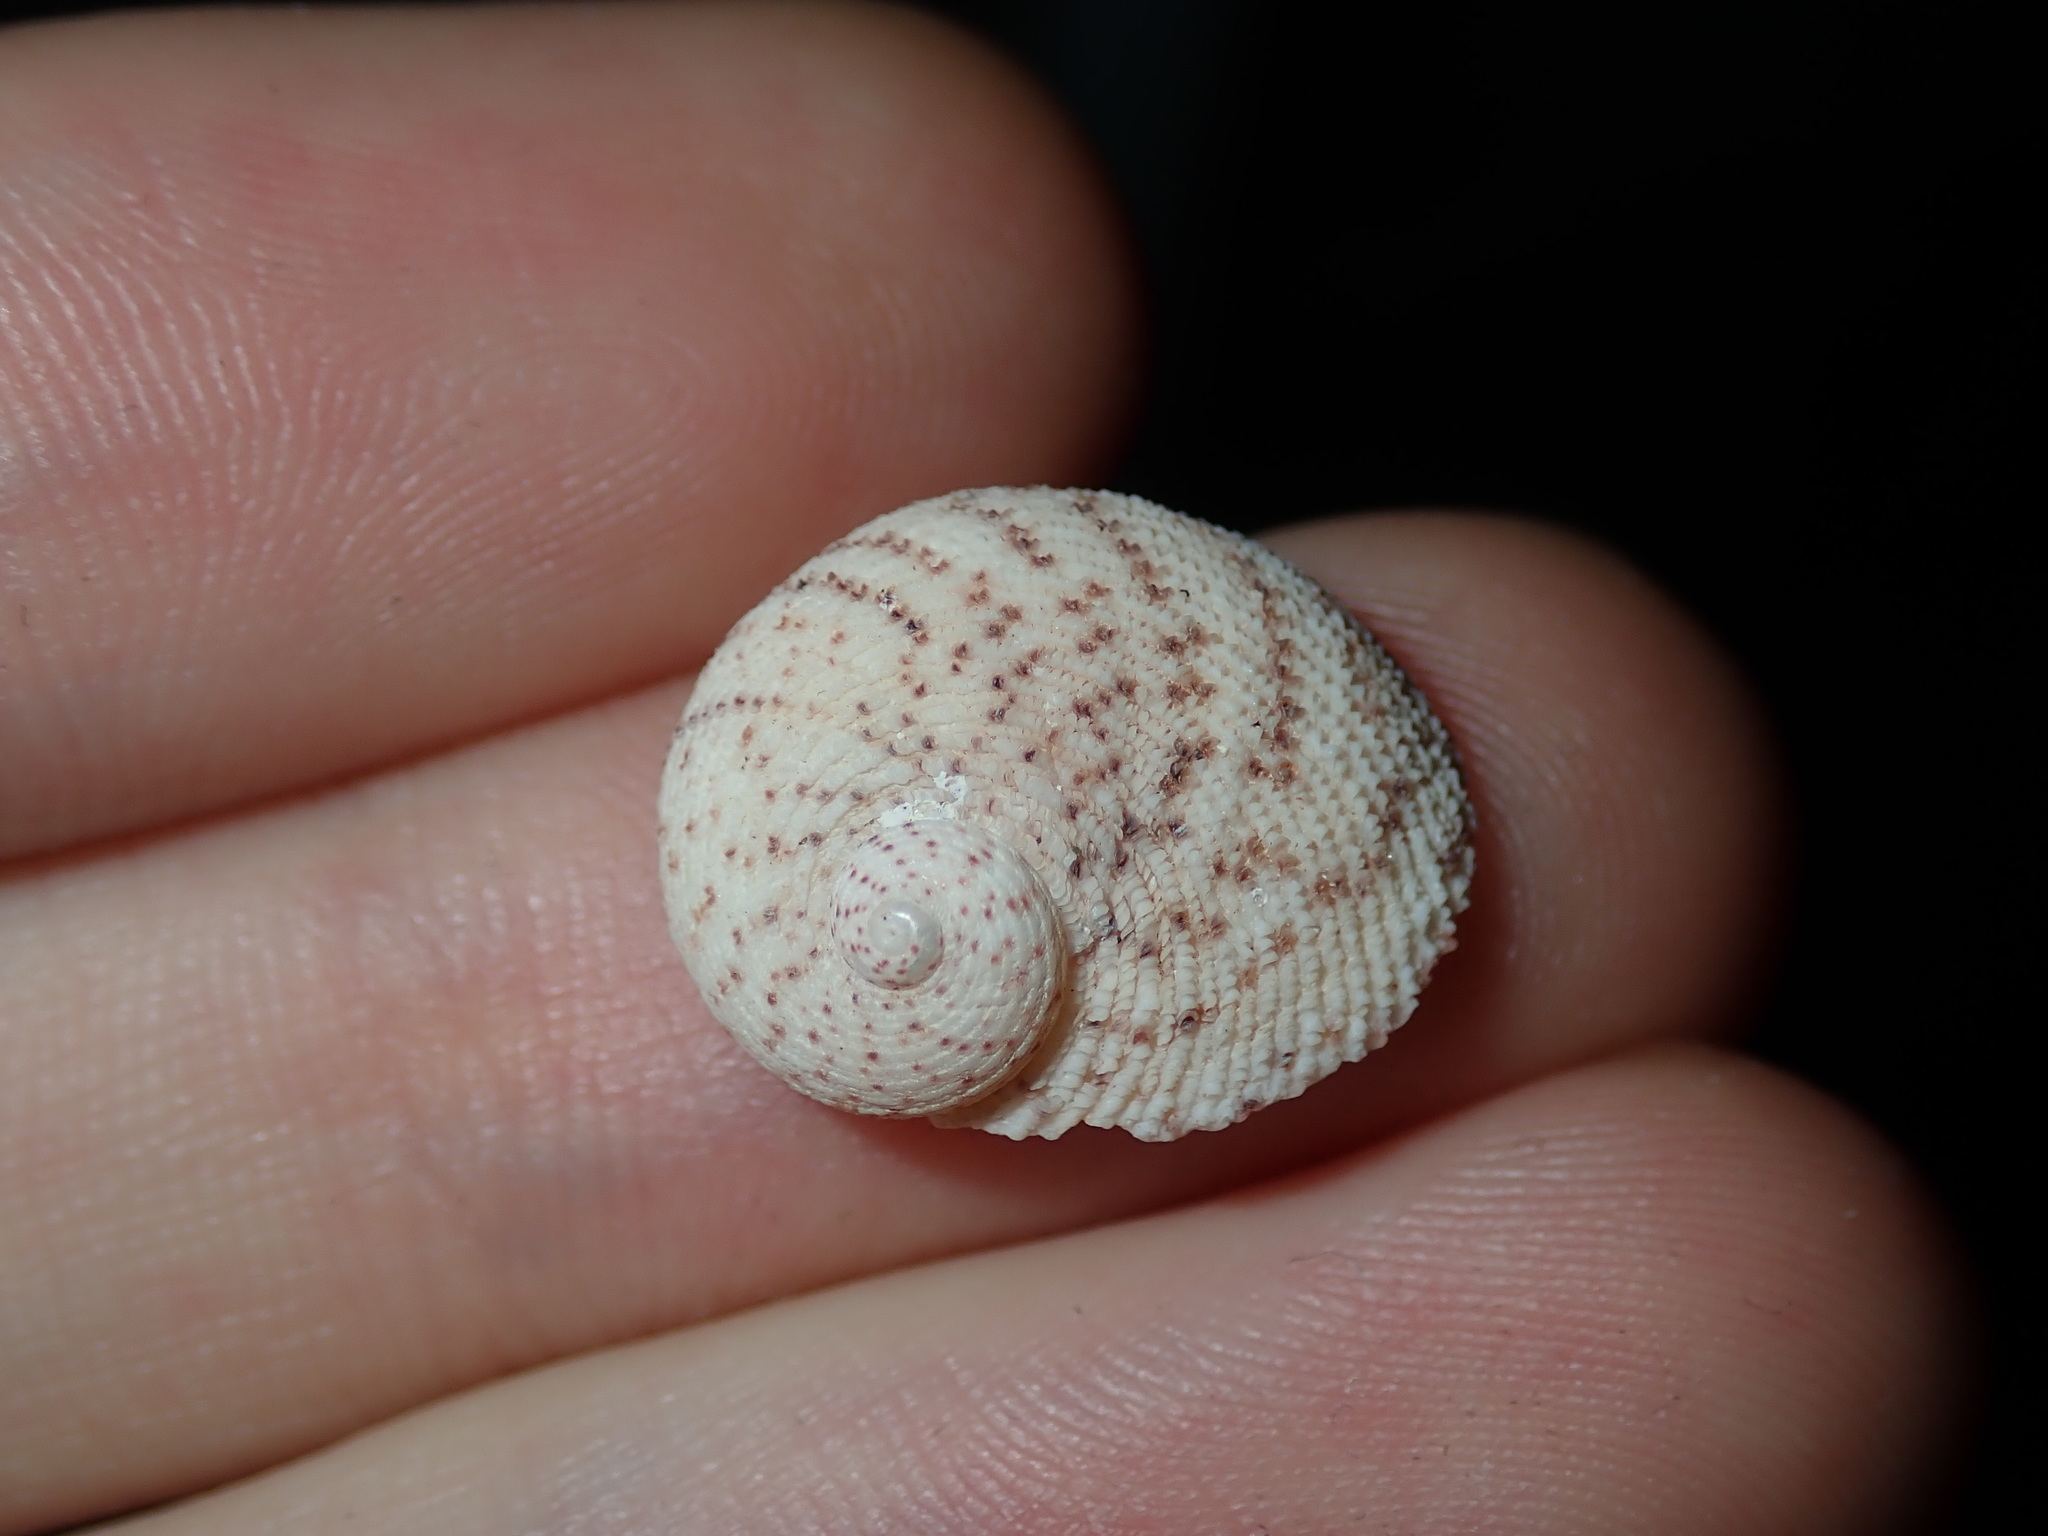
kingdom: Animalia
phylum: Mollusca
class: Gastropoda
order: Seguenziida
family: Chilodontaidae
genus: Granata
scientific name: Granata imbricata
